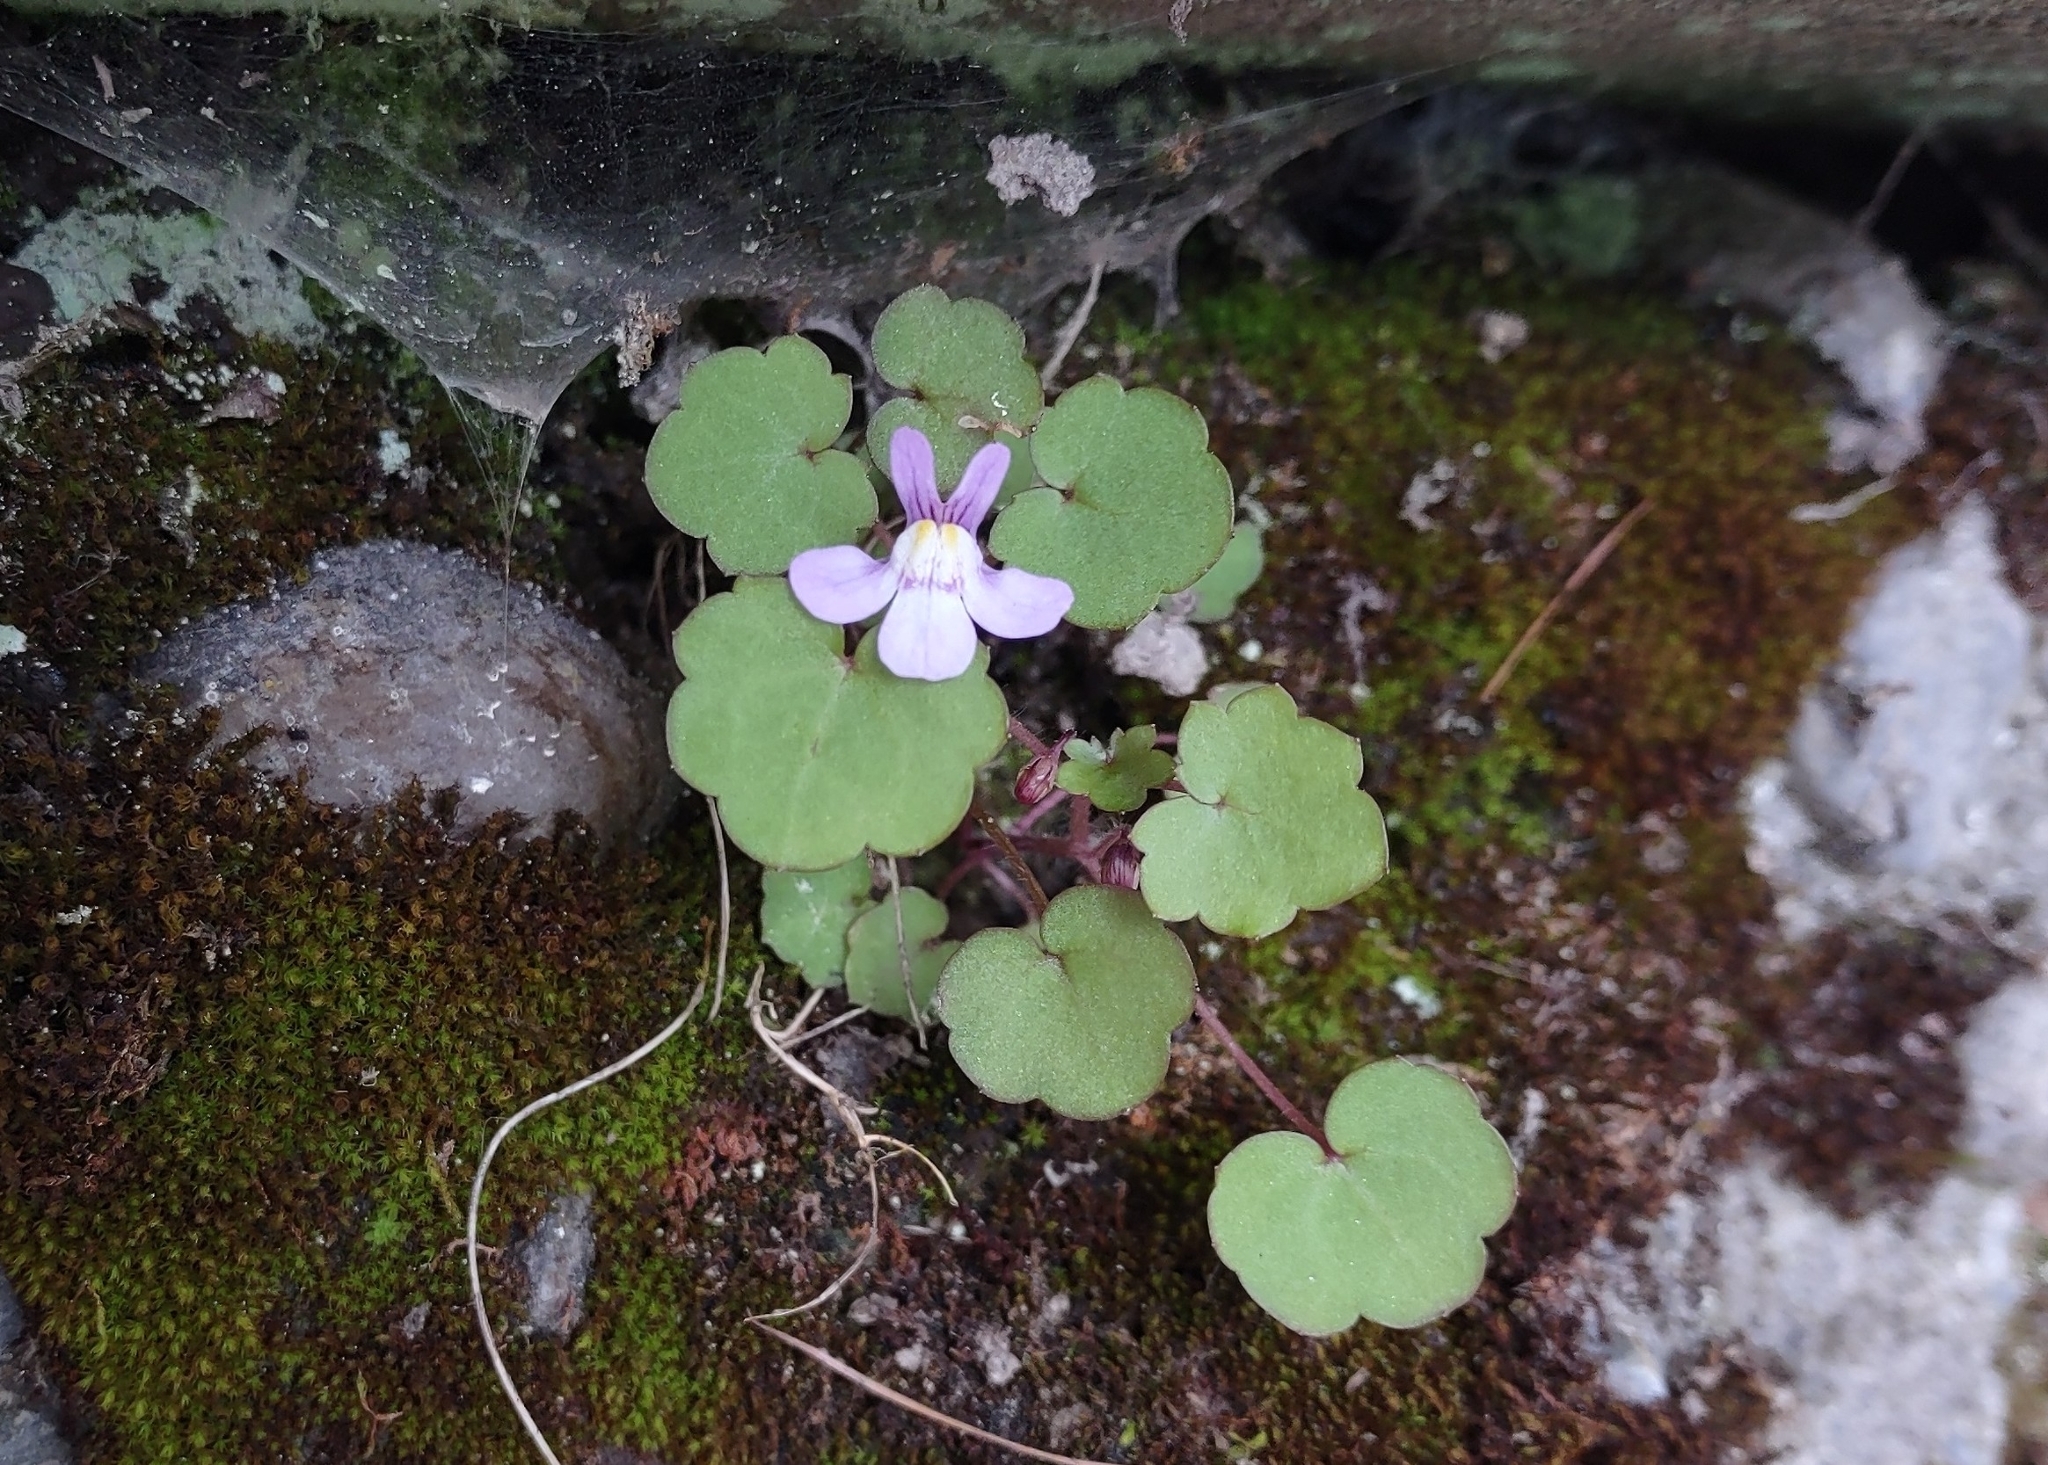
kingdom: Plantae
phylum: Tracheophyta
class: Magnoliopsida
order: Lamiales
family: Plantaginaceae
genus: Cymbalaria
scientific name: Cymbalaria muralis
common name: Ivy-leaved toadflax
